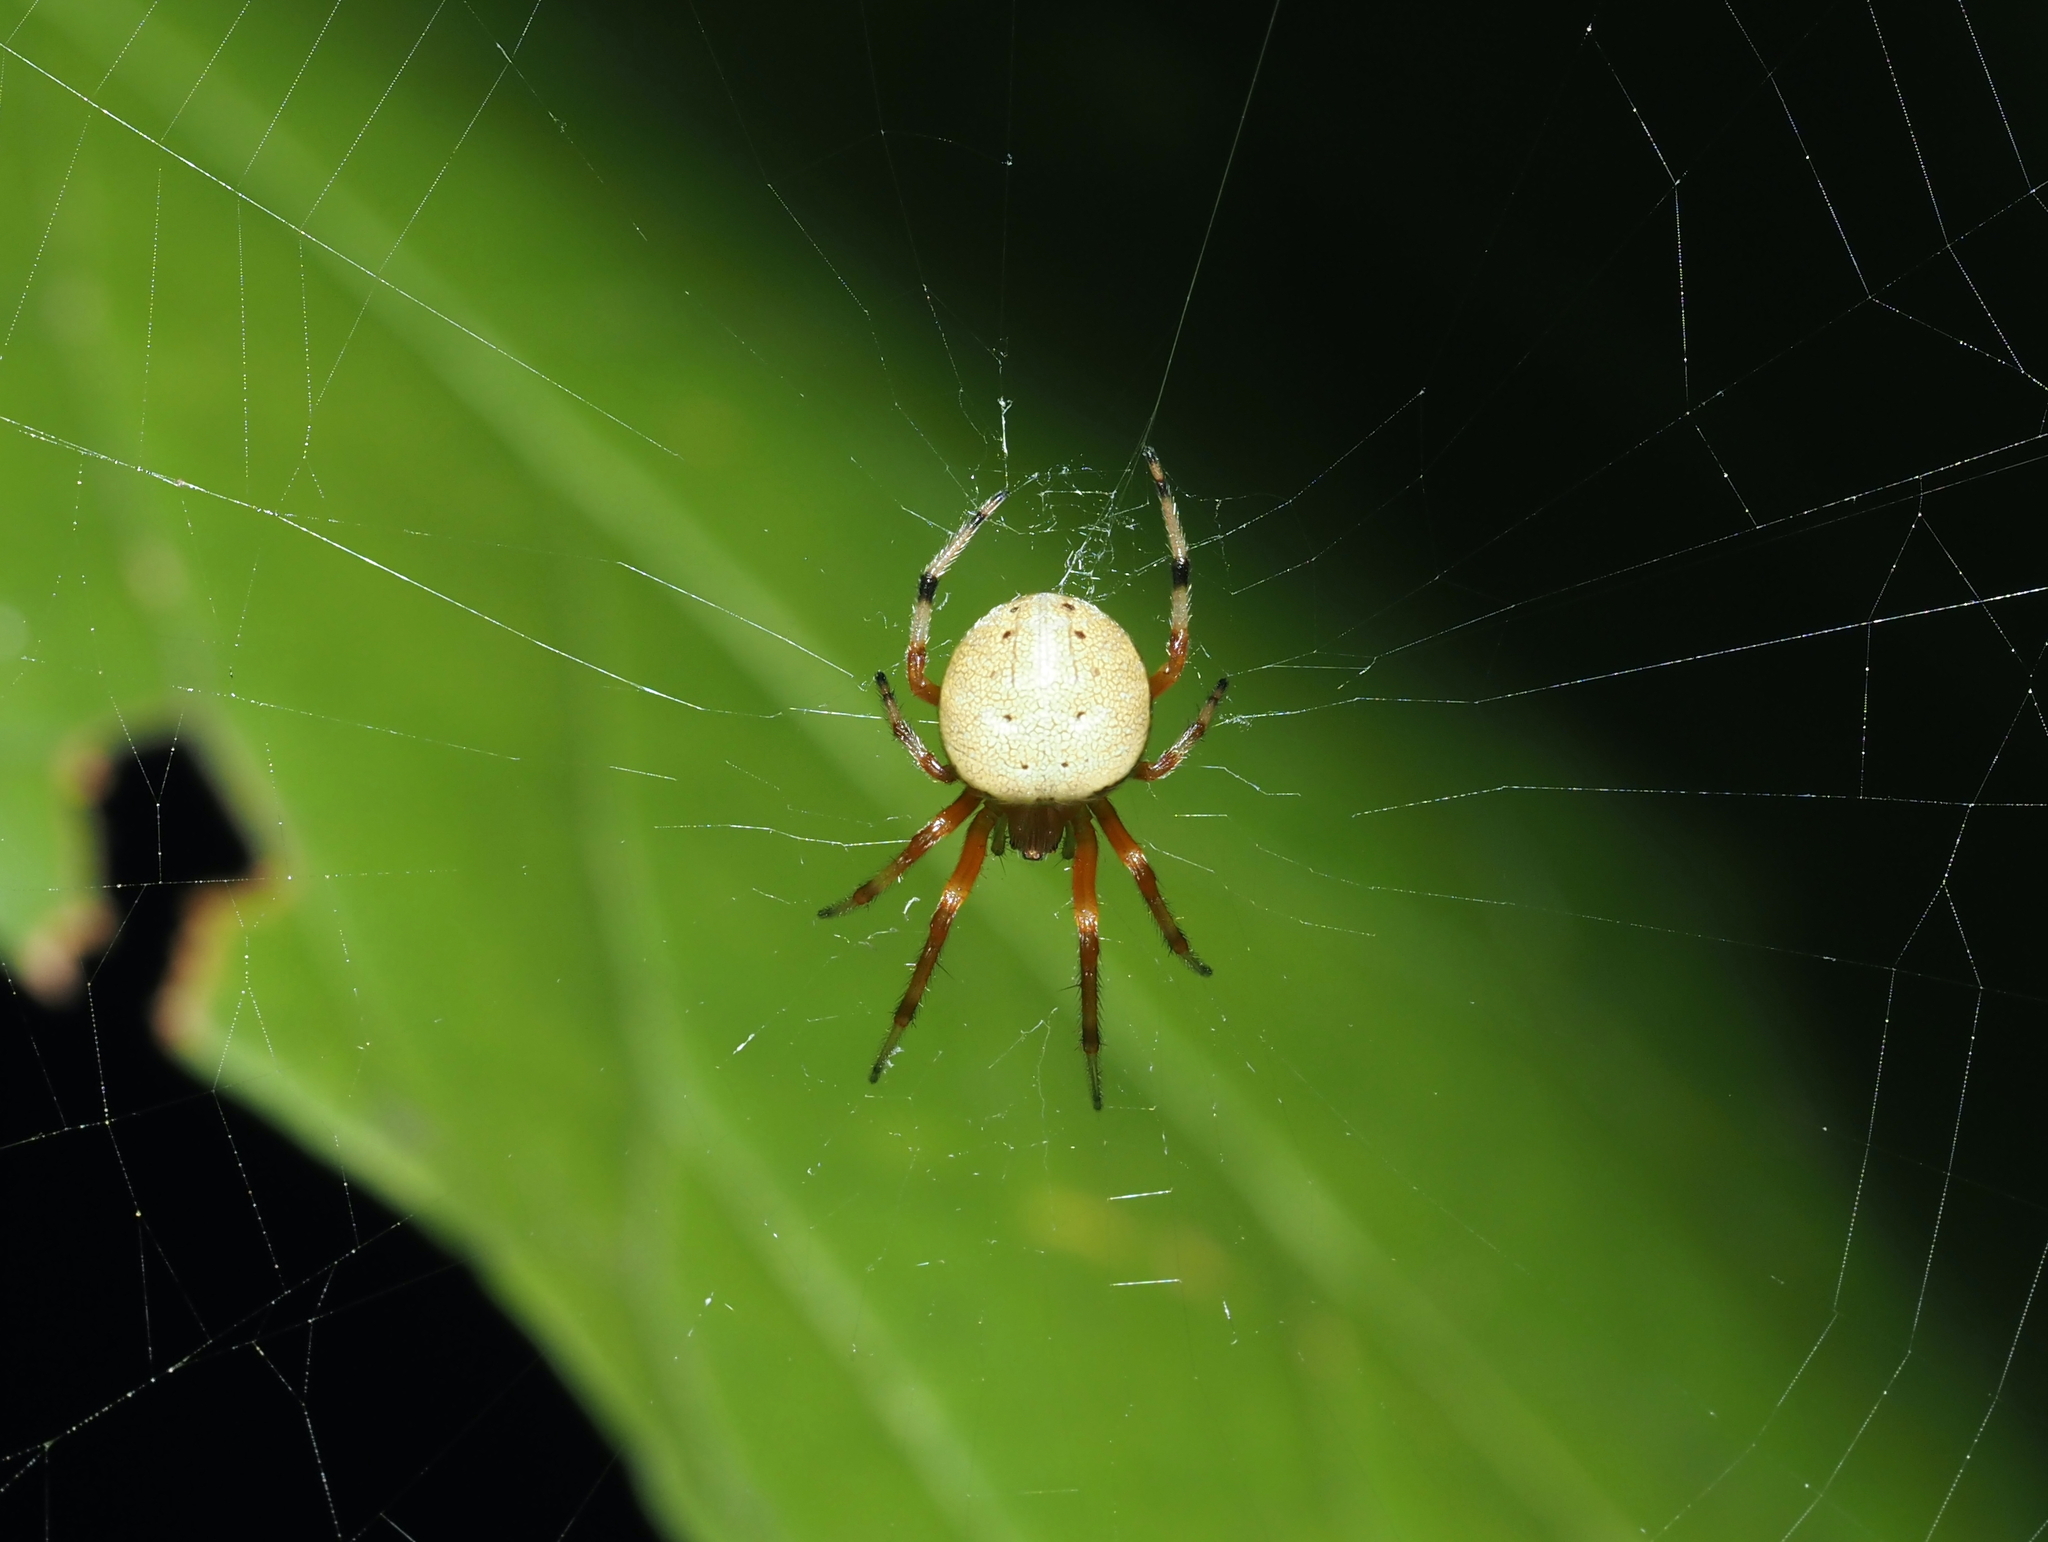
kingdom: Animalia
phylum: Arthropoda
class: Arachnida
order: Araneae
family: Araneidae
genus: Araneus
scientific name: Araneus thaddeus
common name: Lattice orbweaver
